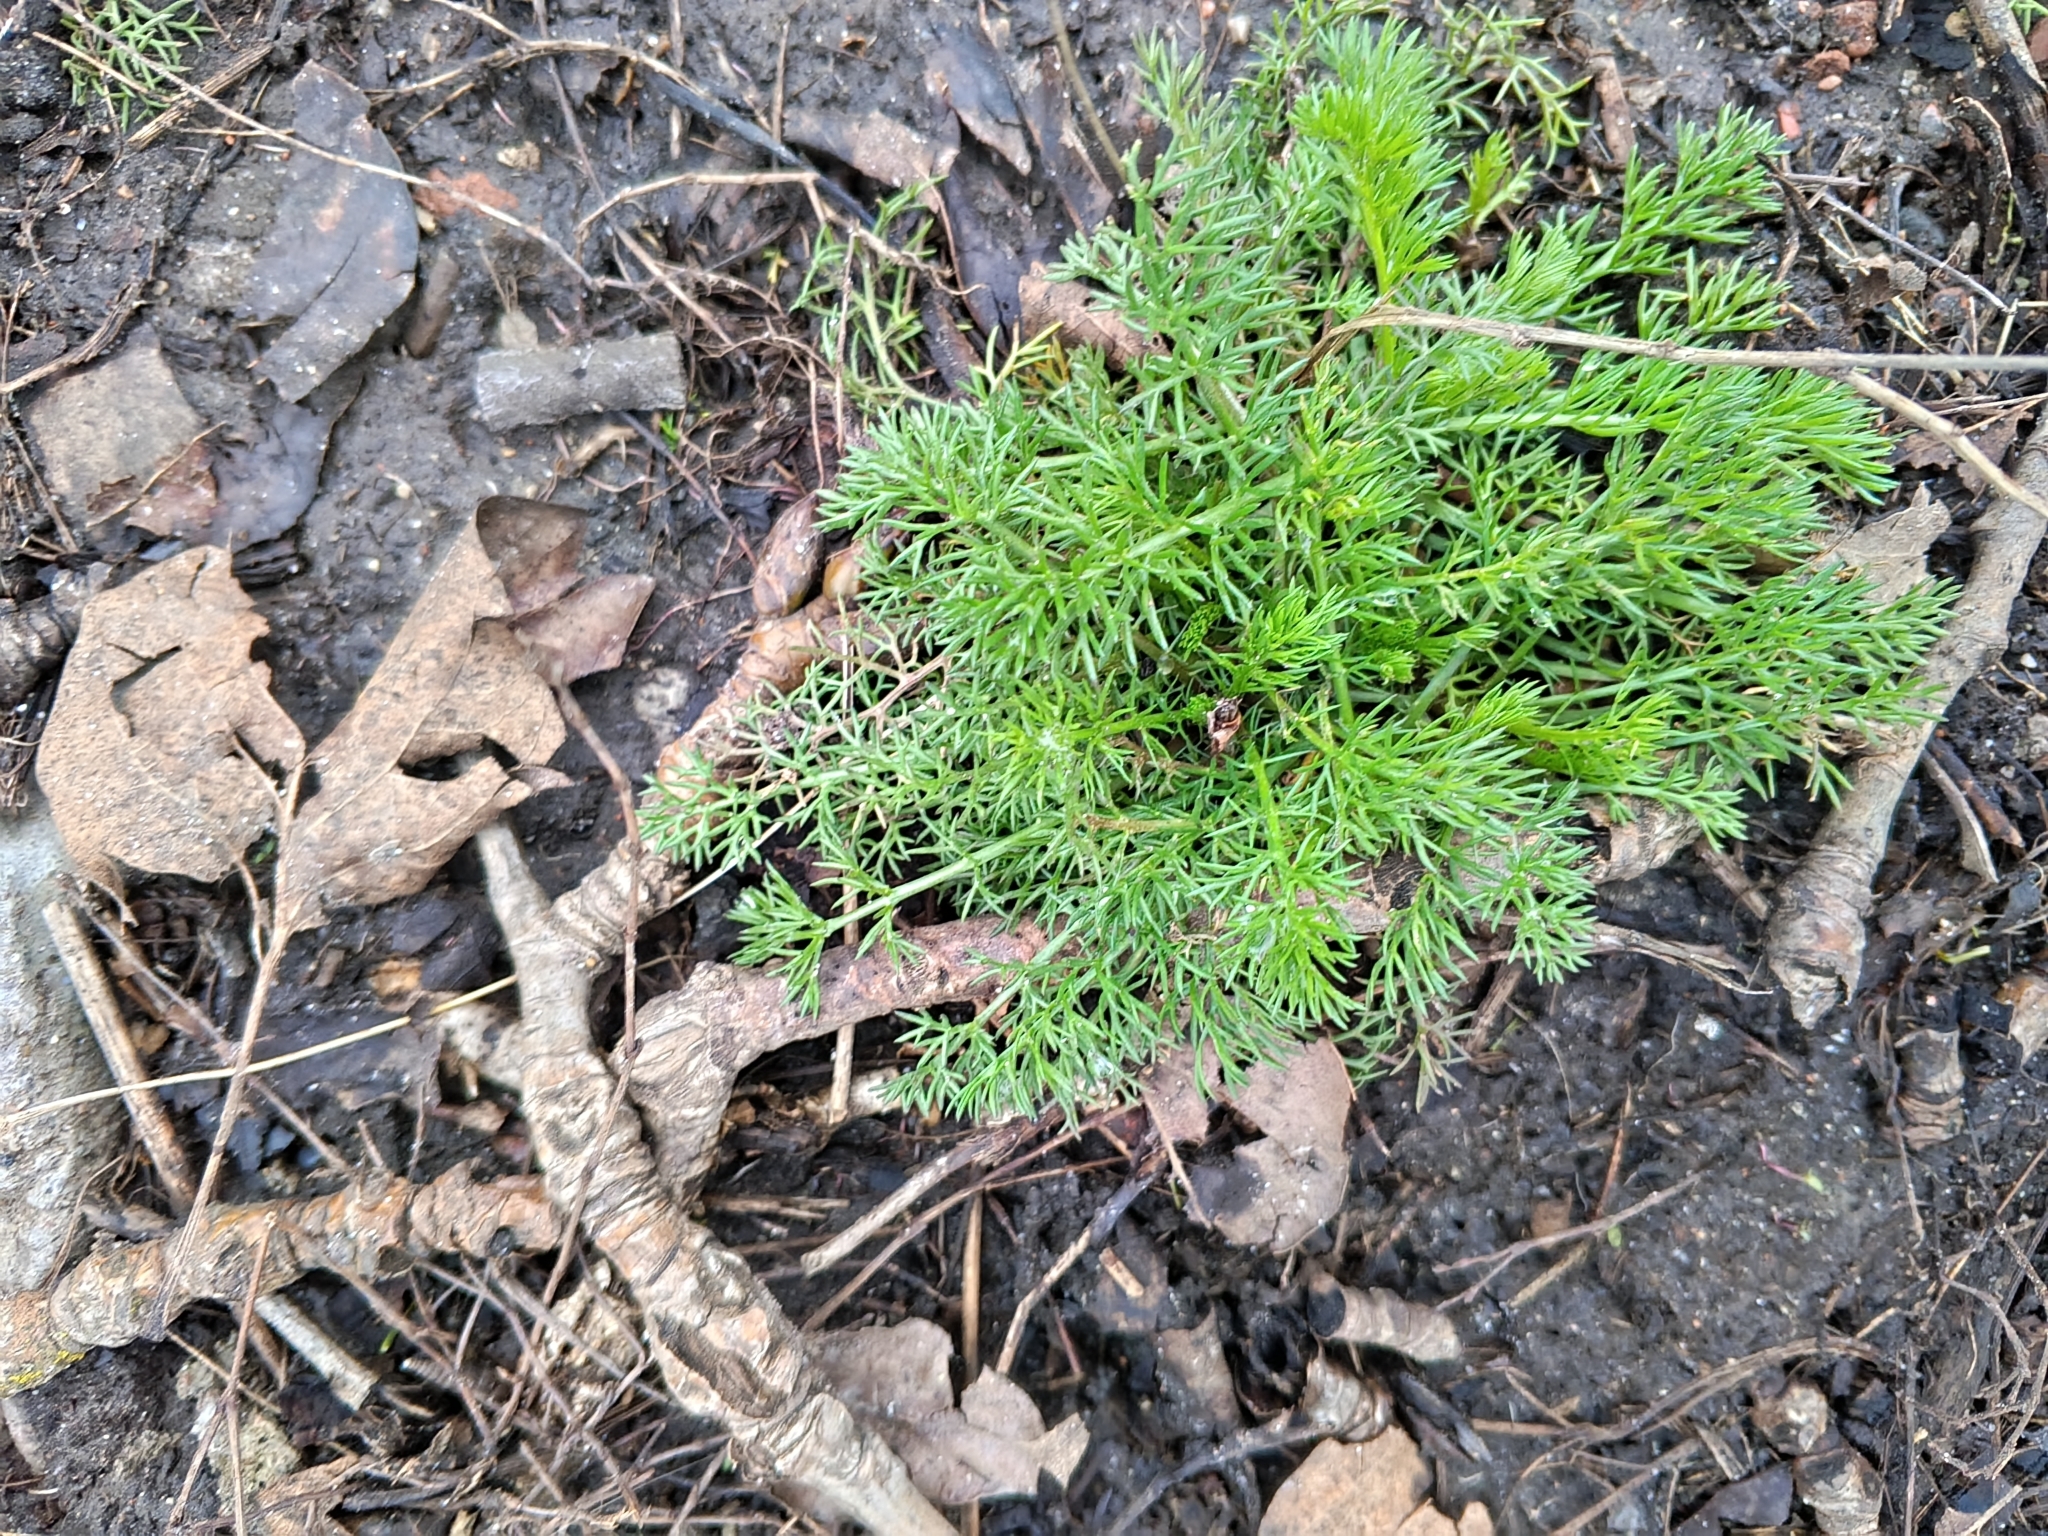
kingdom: Plantae
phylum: Tracheophyta
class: Magnoliopsida
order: Asterales
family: Asteraceae
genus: Tripleurospermum
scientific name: Tripleurospermum inodorum
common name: Scentless mayweed
